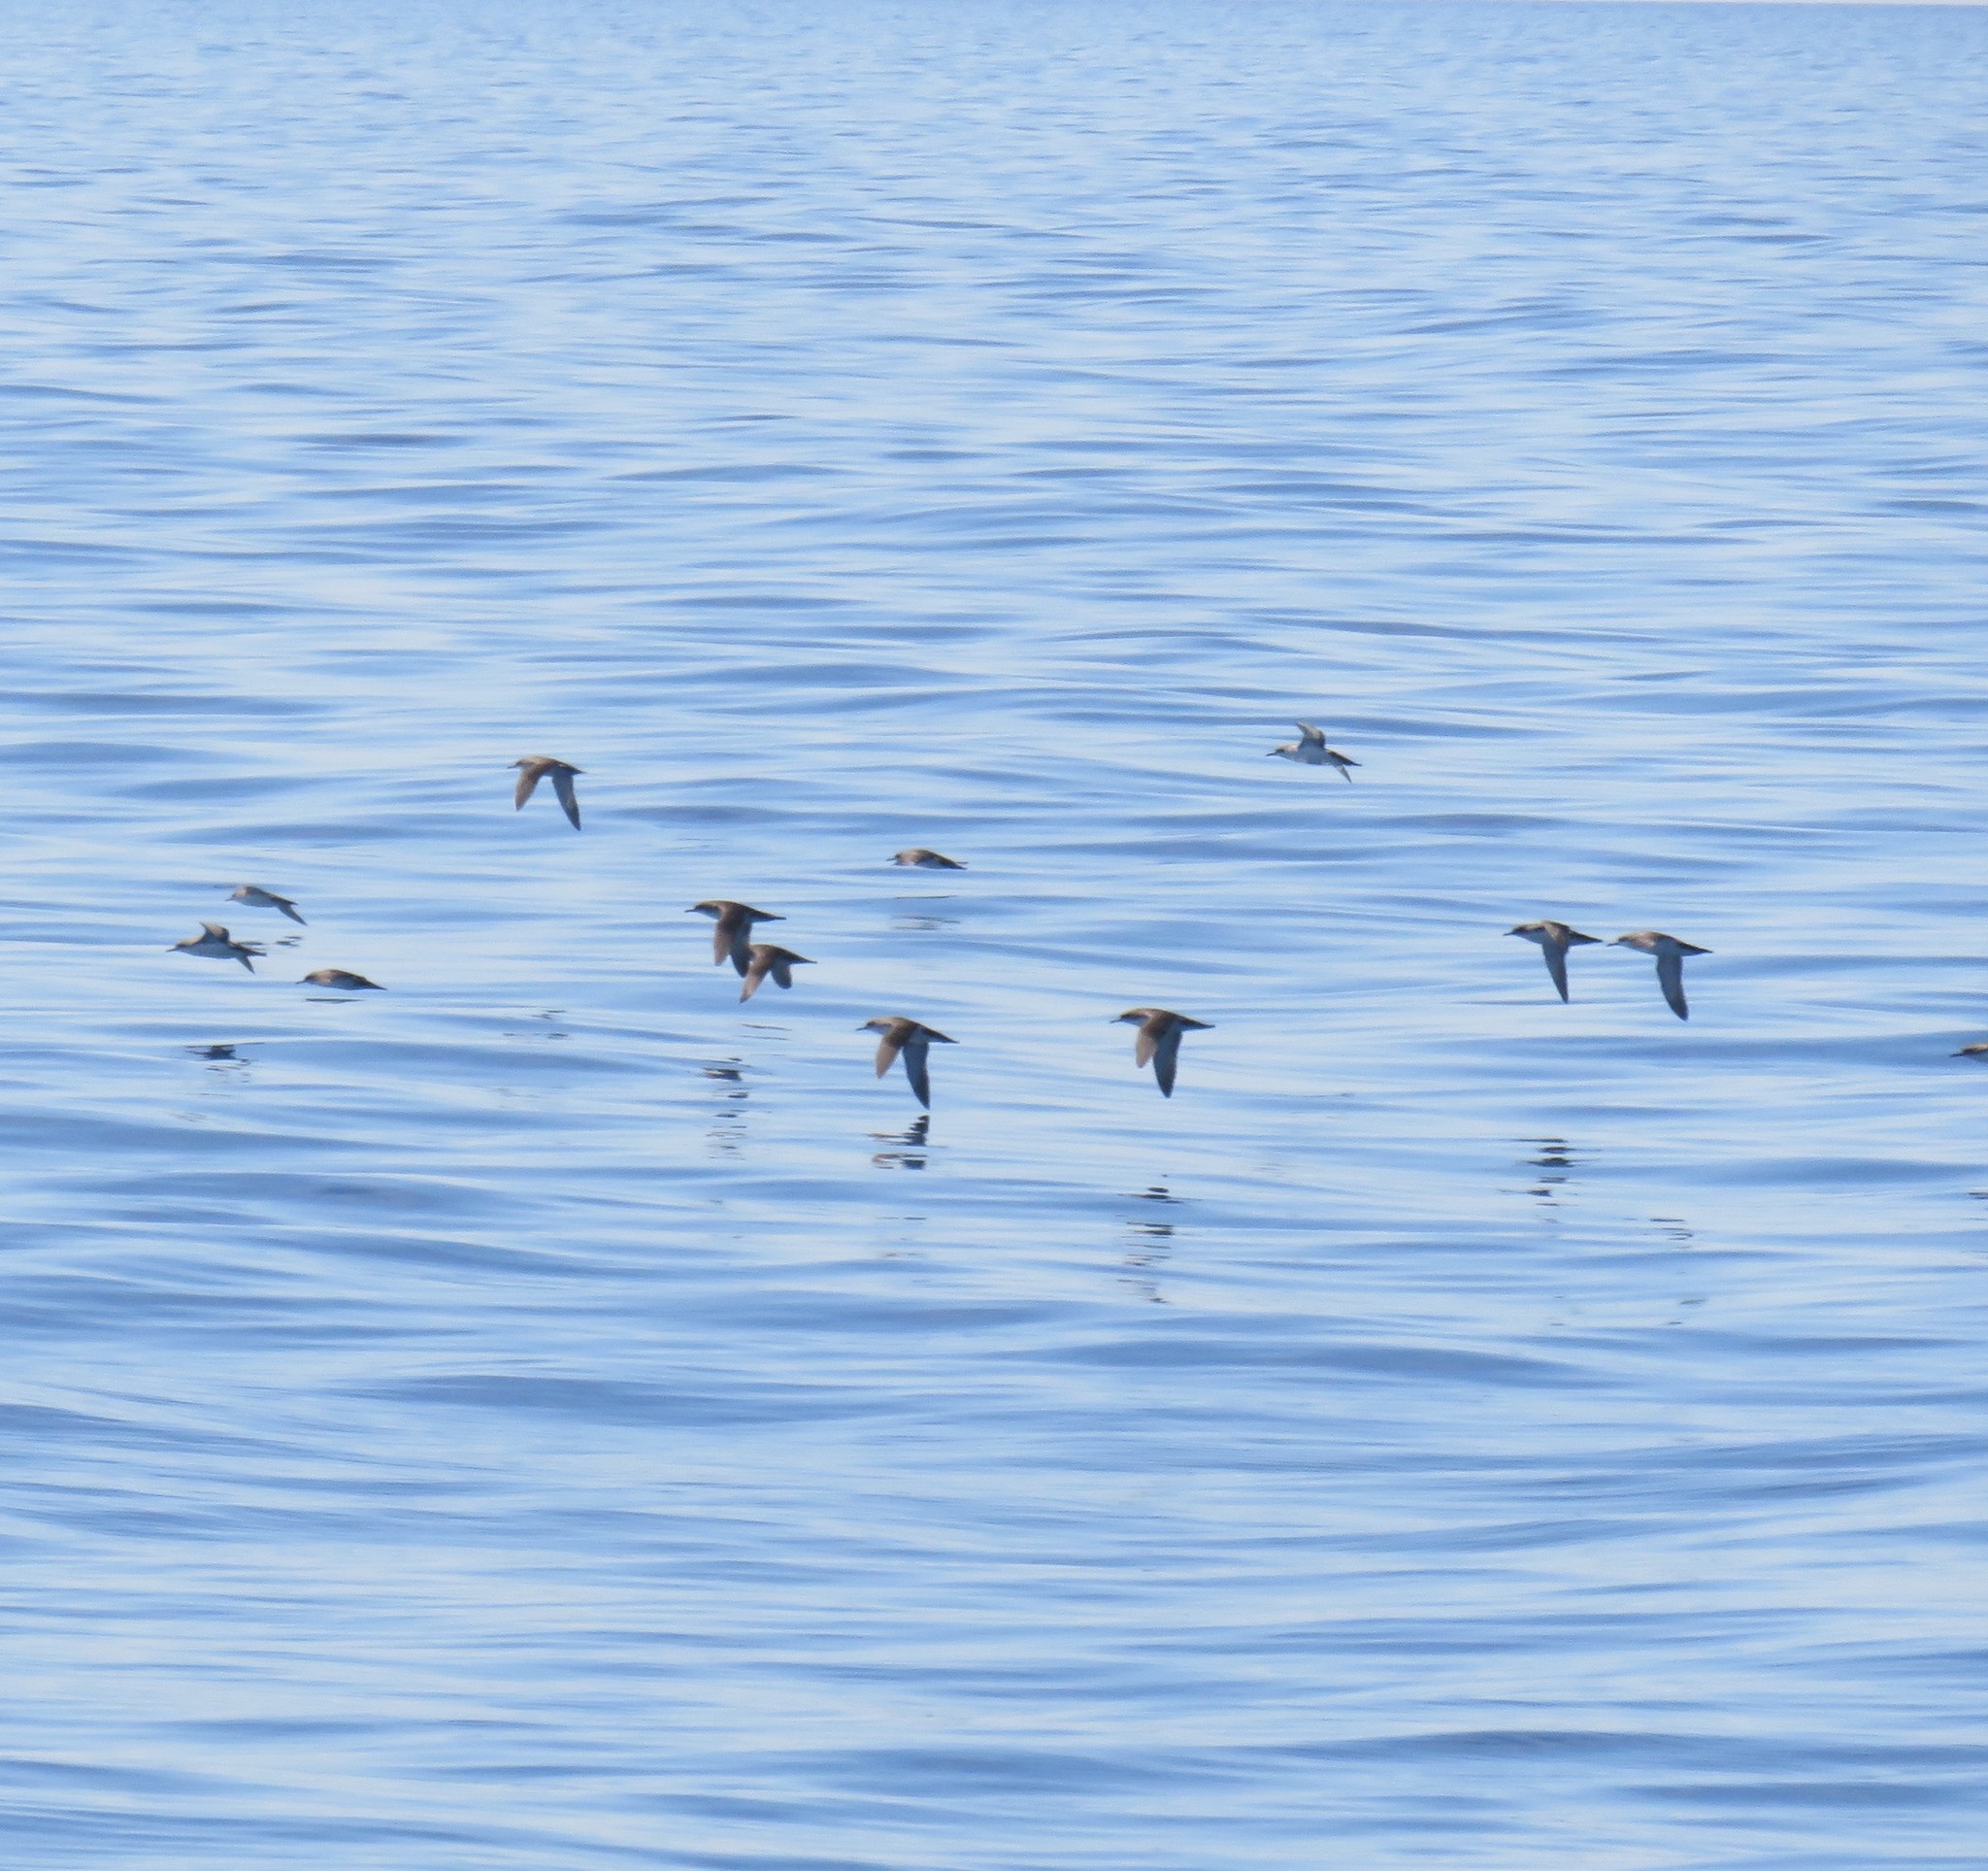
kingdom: Animalia
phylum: Chordata
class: Aves
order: Procellariiformes
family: Procellariidae
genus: Puffinus
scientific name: Puffinus yelkouan
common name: Yelkouan shearwater
